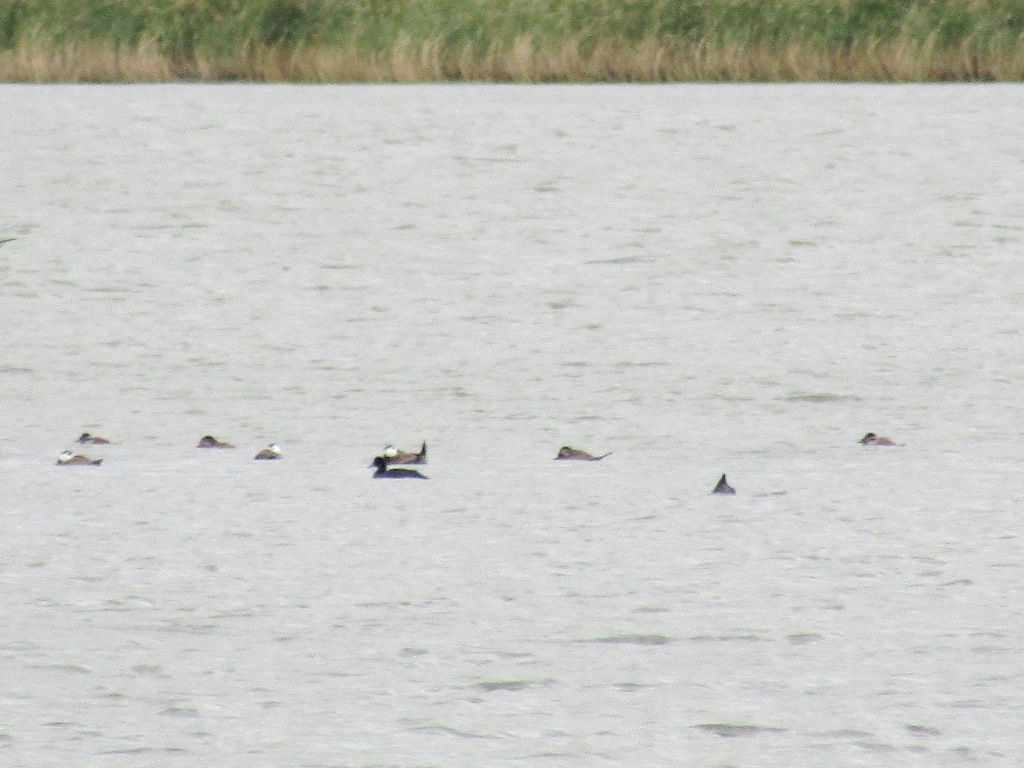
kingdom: Animalia
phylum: Chordata
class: Aves
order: Anseriformes
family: Anatidae
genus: Oxyura
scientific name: Oxyura leucocephala
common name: White-headed duck
